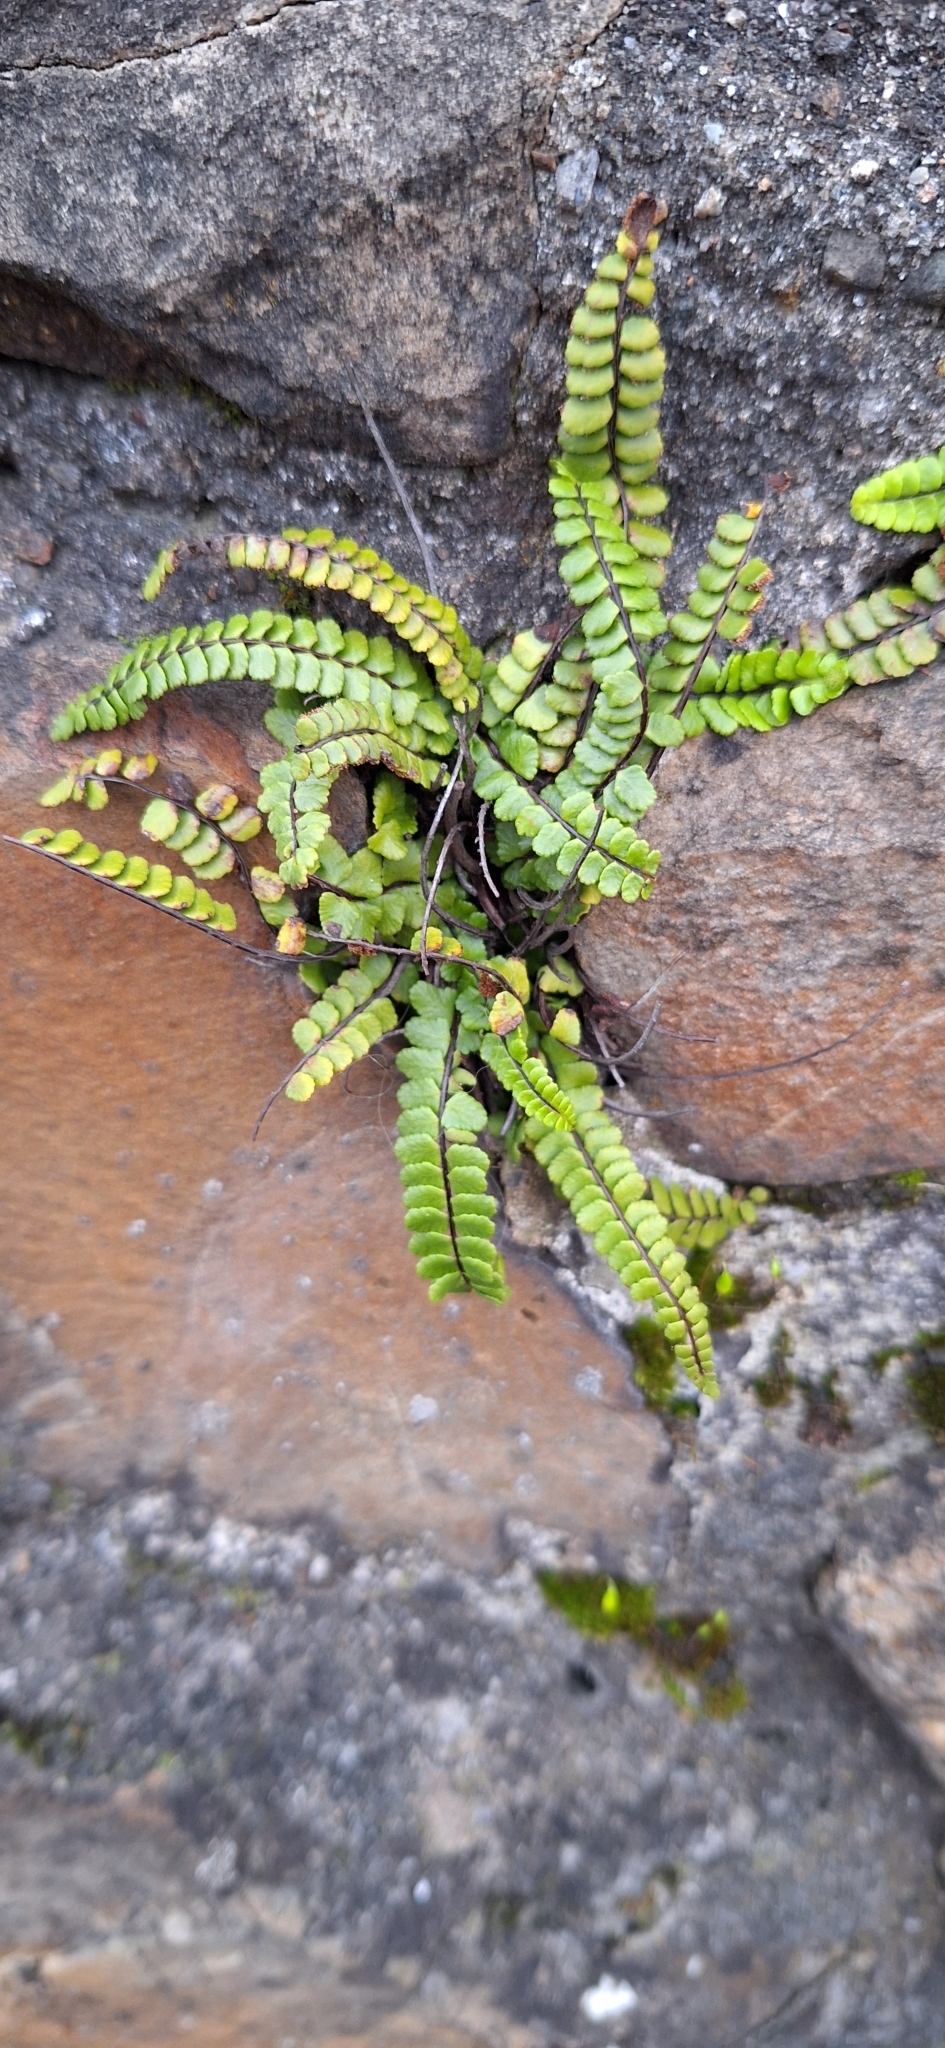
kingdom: Plantae
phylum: Tracheophyta
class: Polypodiopsida
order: Polypodiales
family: Aspleniaceae
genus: Asplenium
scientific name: Asplenium trichomanes
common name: Maidenhair spleenwort
